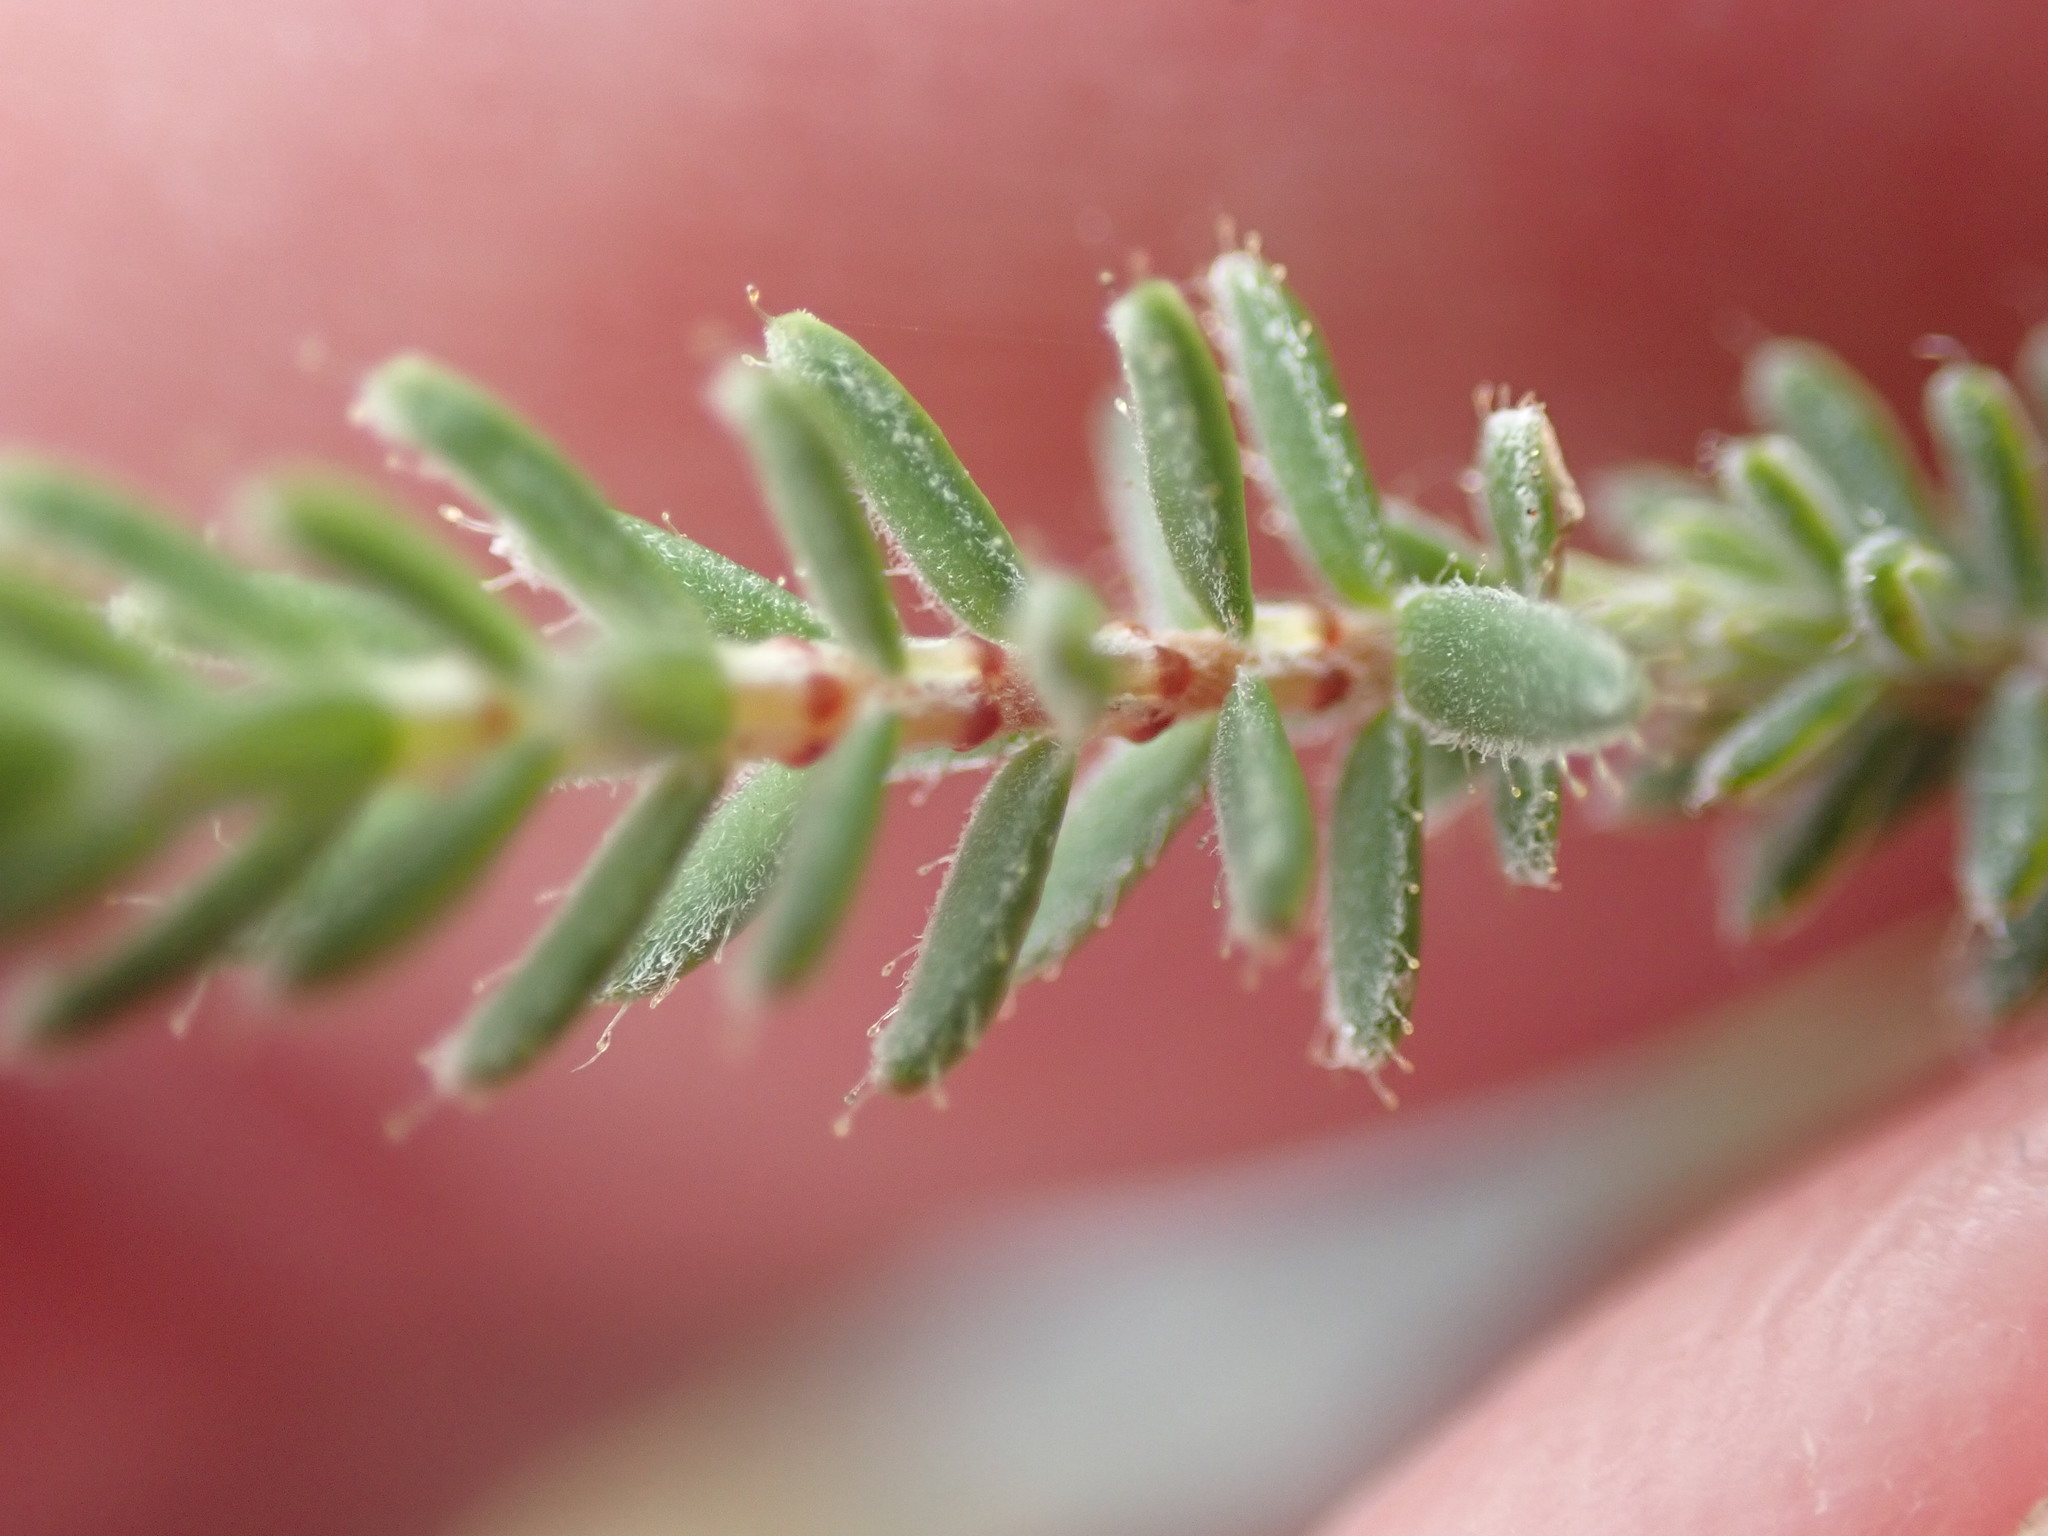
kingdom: Plantae
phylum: Tracheophyta
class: Magnoliopsida
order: Ericales
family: Ericaceae
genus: Erica
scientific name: Erica tetralix
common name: Cross-leaved heath
